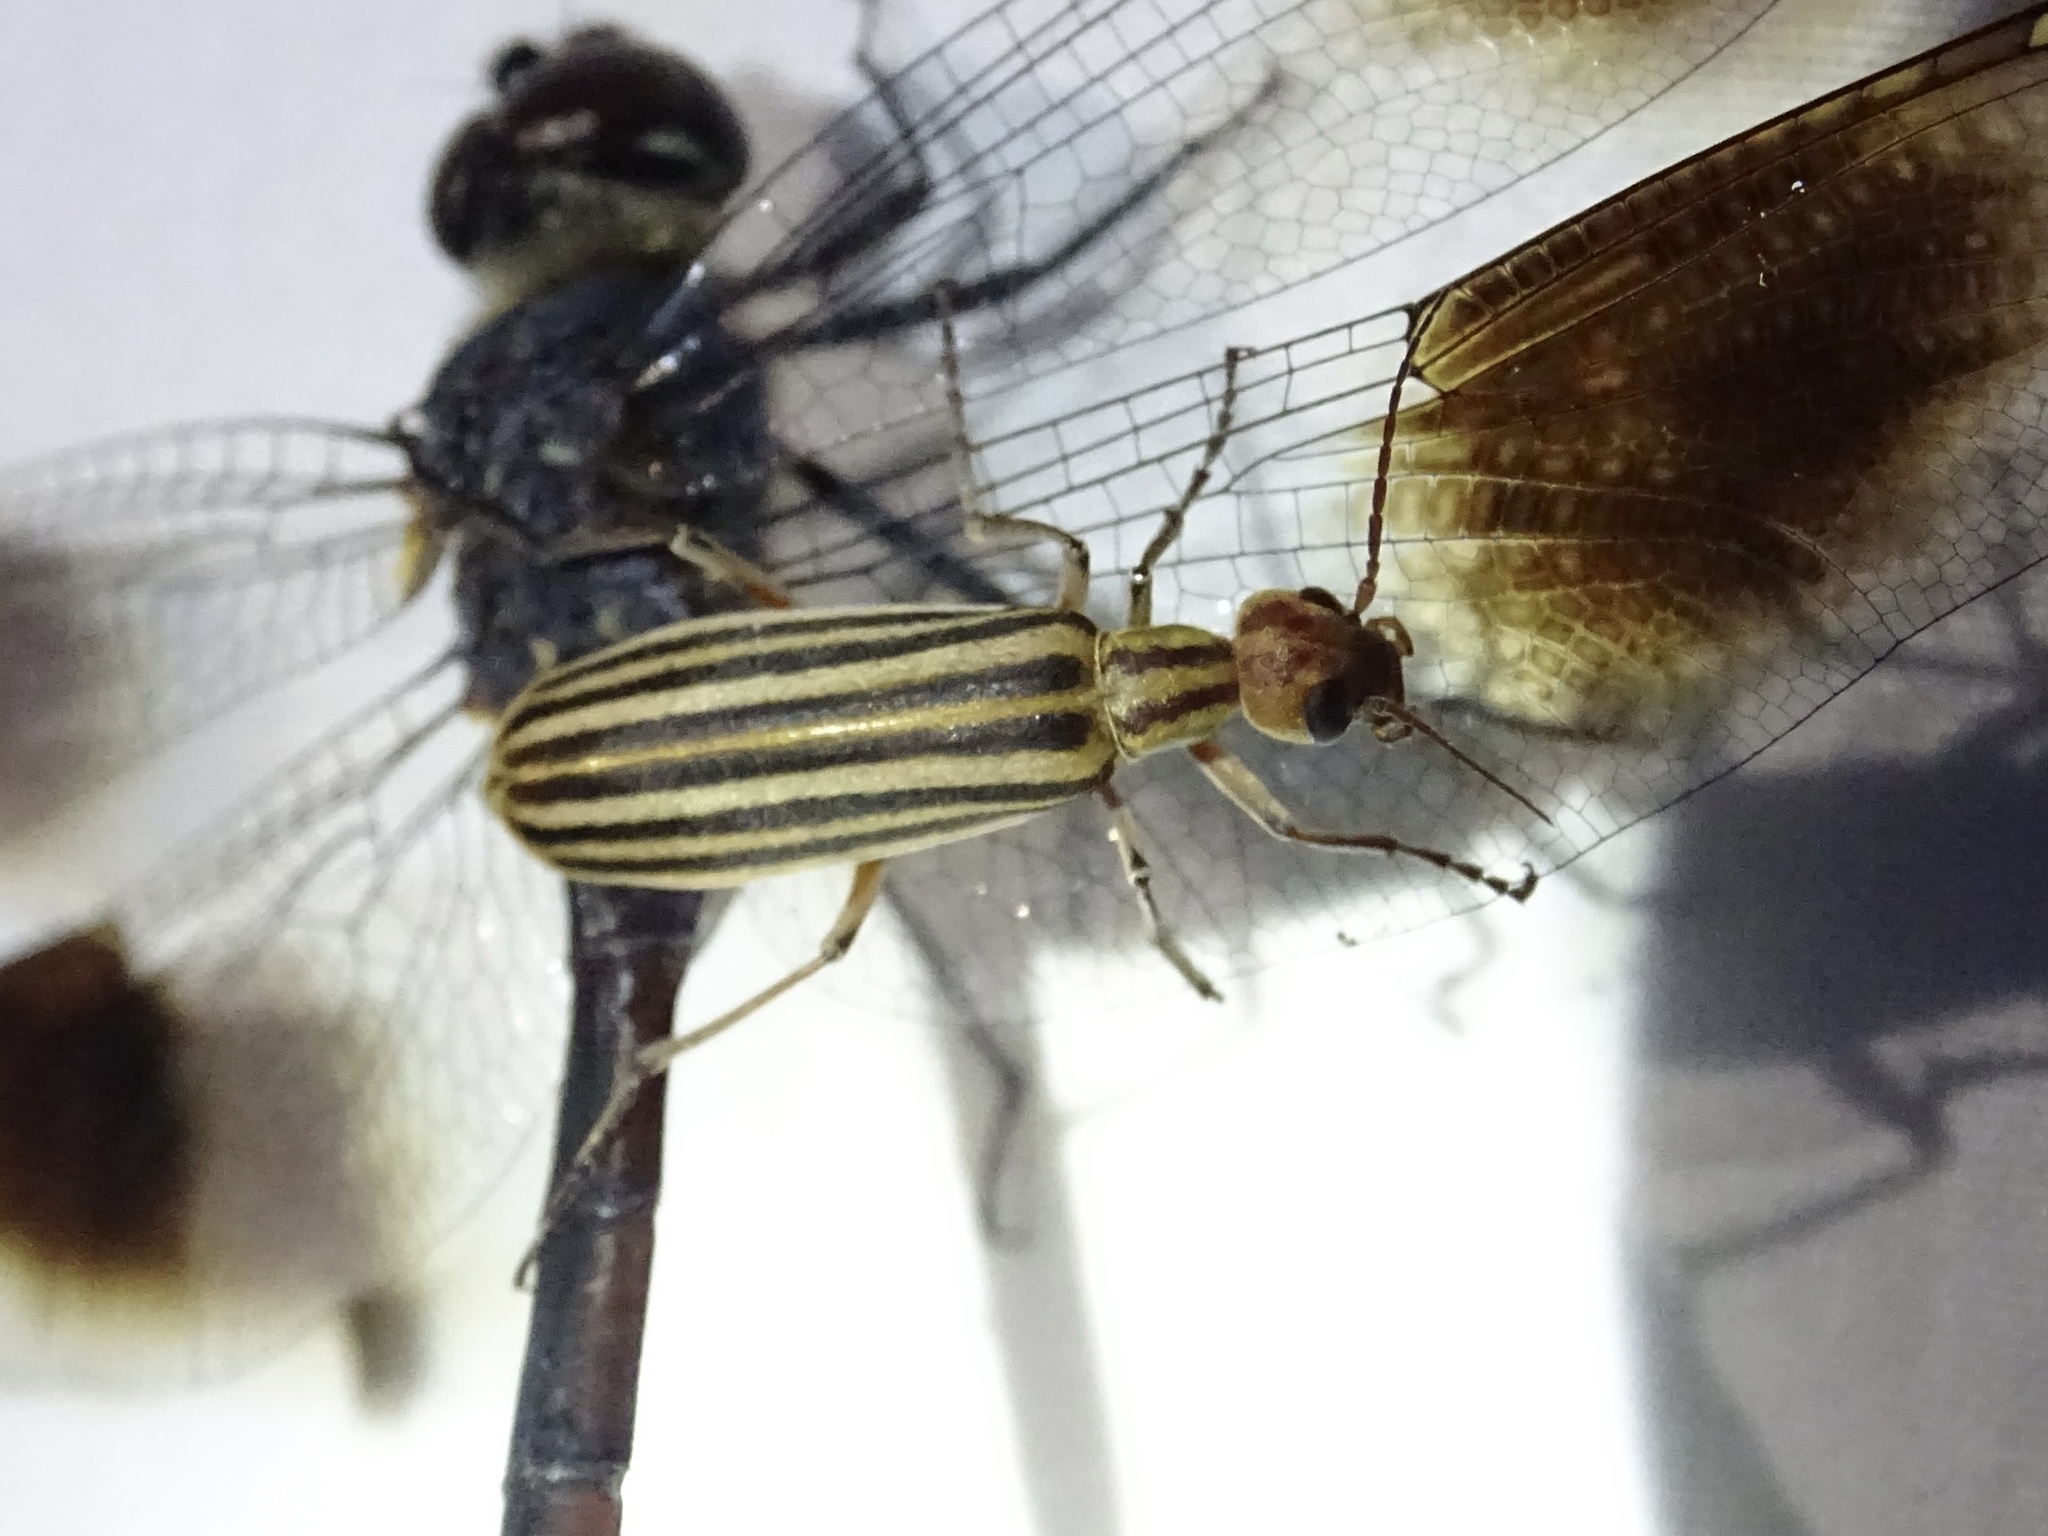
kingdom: Animalia
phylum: Arthropoda
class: Insecta
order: Coleoptera
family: Meloidae
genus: Epicauta
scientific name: Epicauta vittata
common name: Old-fashioned potato beetle
